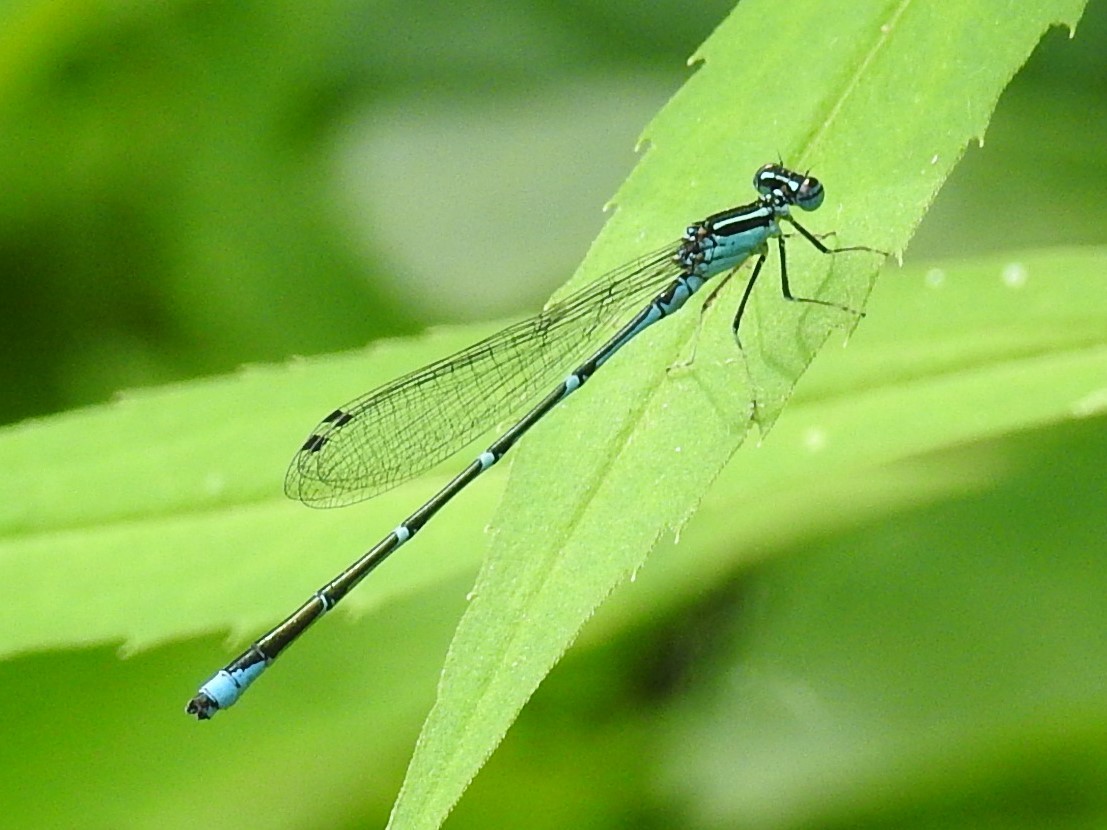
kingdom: Animalia
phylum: Arthropoda
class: Insecta
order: Odonata
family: Coenagrionidae
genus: Enallagma
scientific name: Enallagma exsulans
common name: Stream bluet
